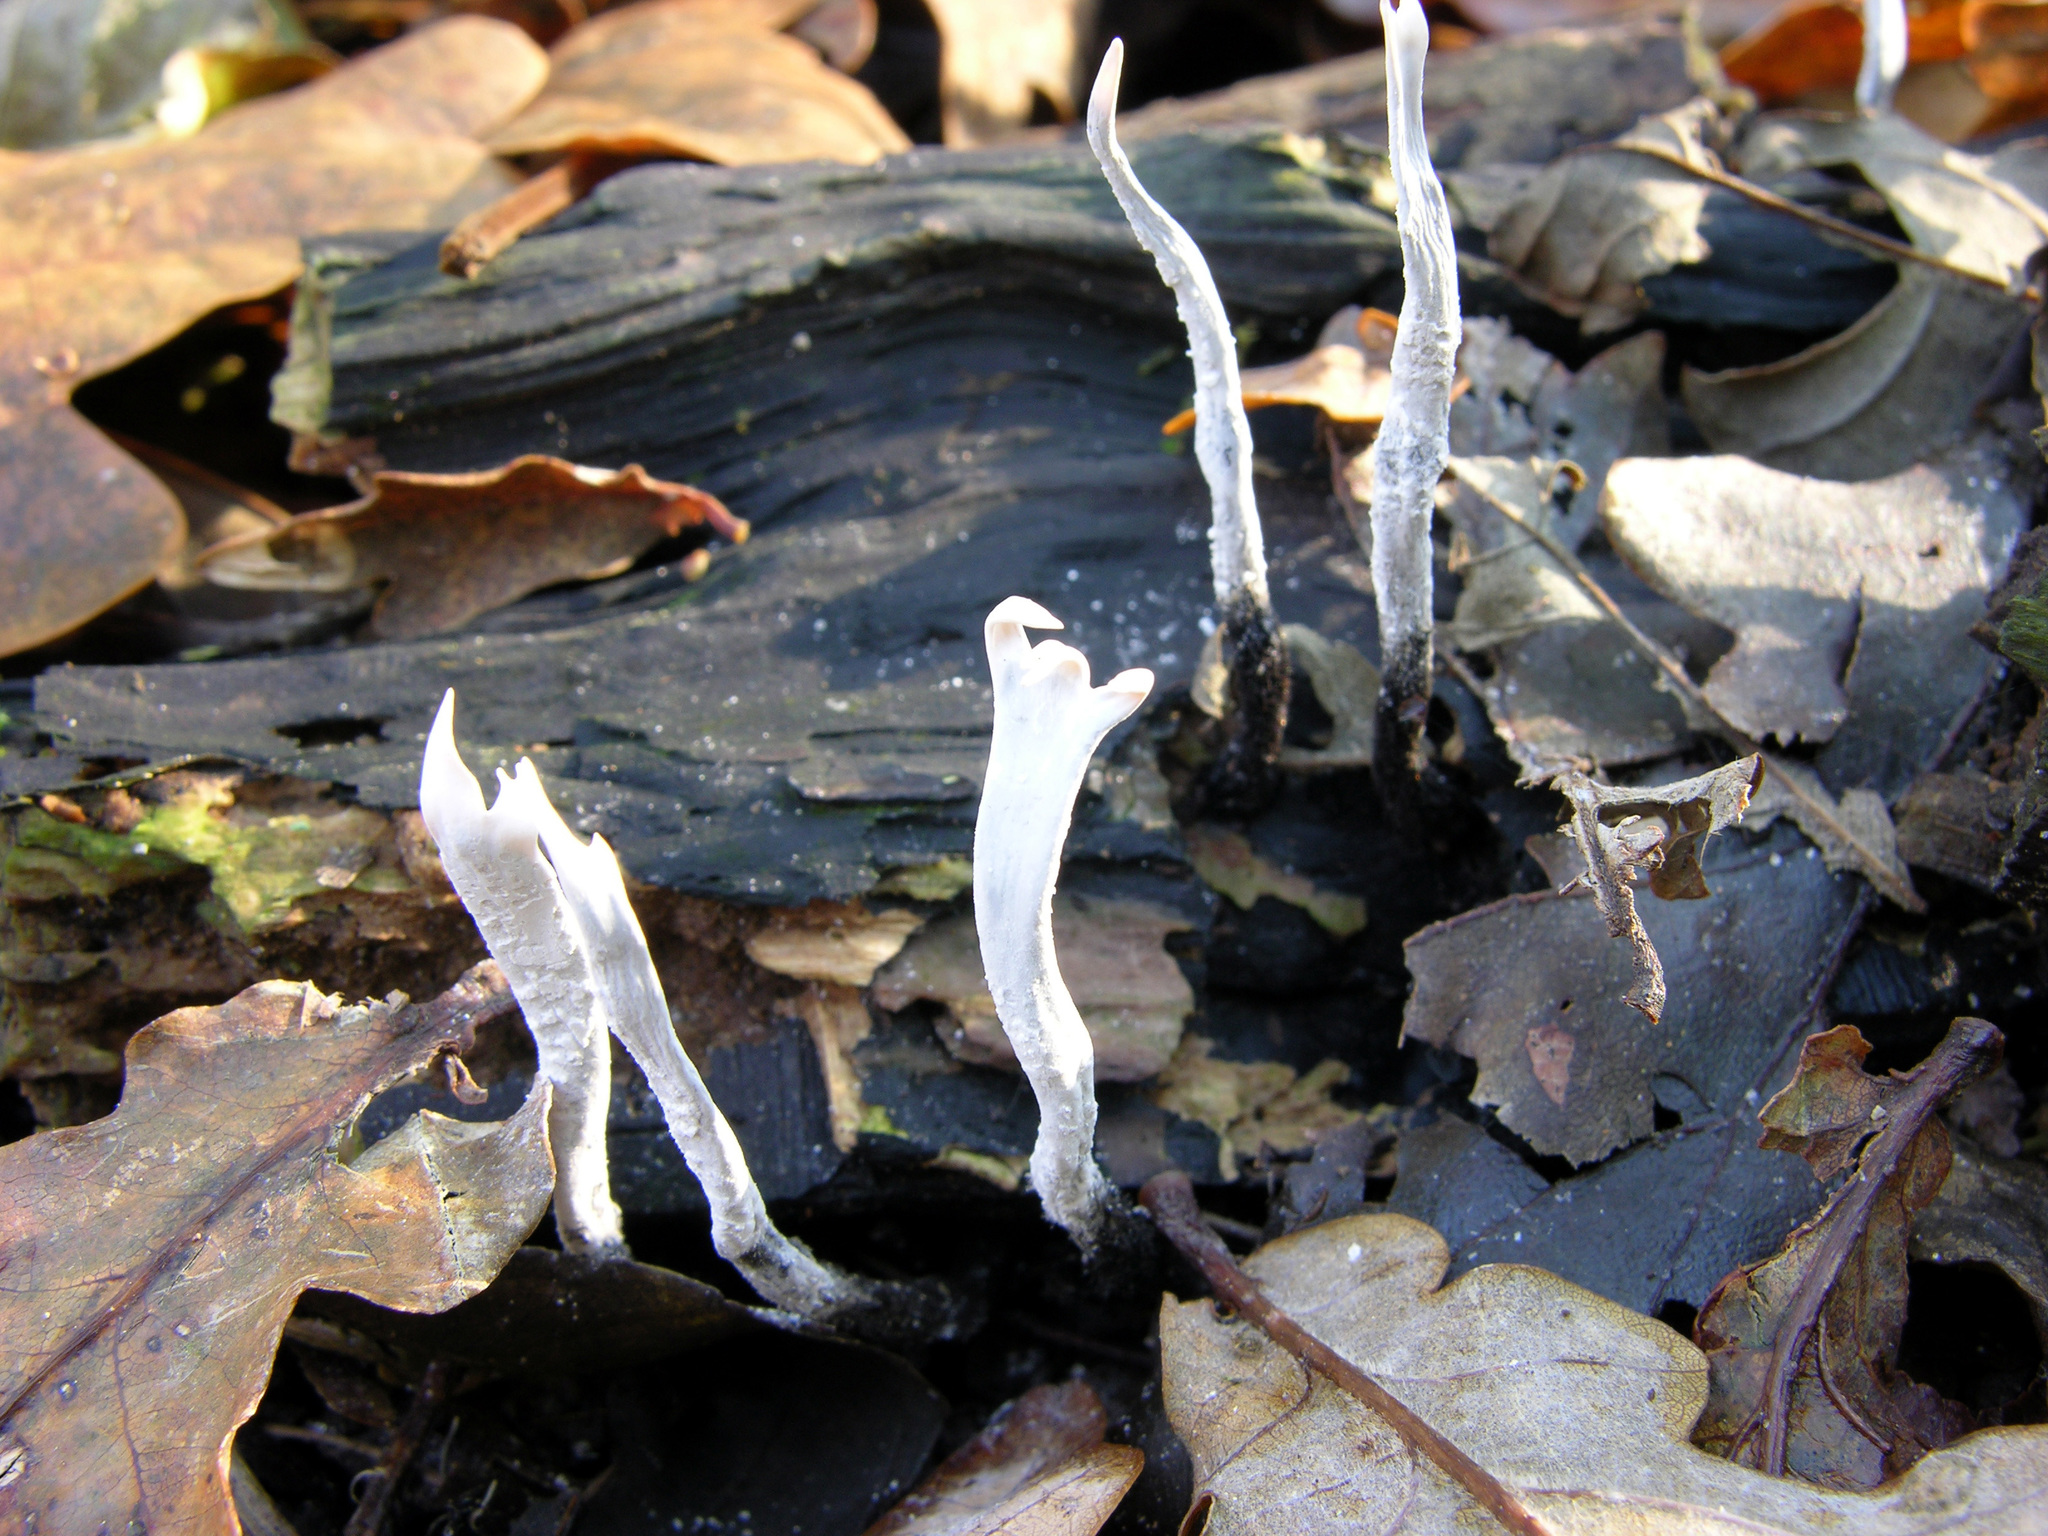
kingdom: Fungi
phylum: Ascomycota
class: Sordariomycetes
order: Xylariales
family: Xylariaceae
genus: Xylaria
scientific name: Xylaria hypoxylon
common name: Candle-snuff fungus
